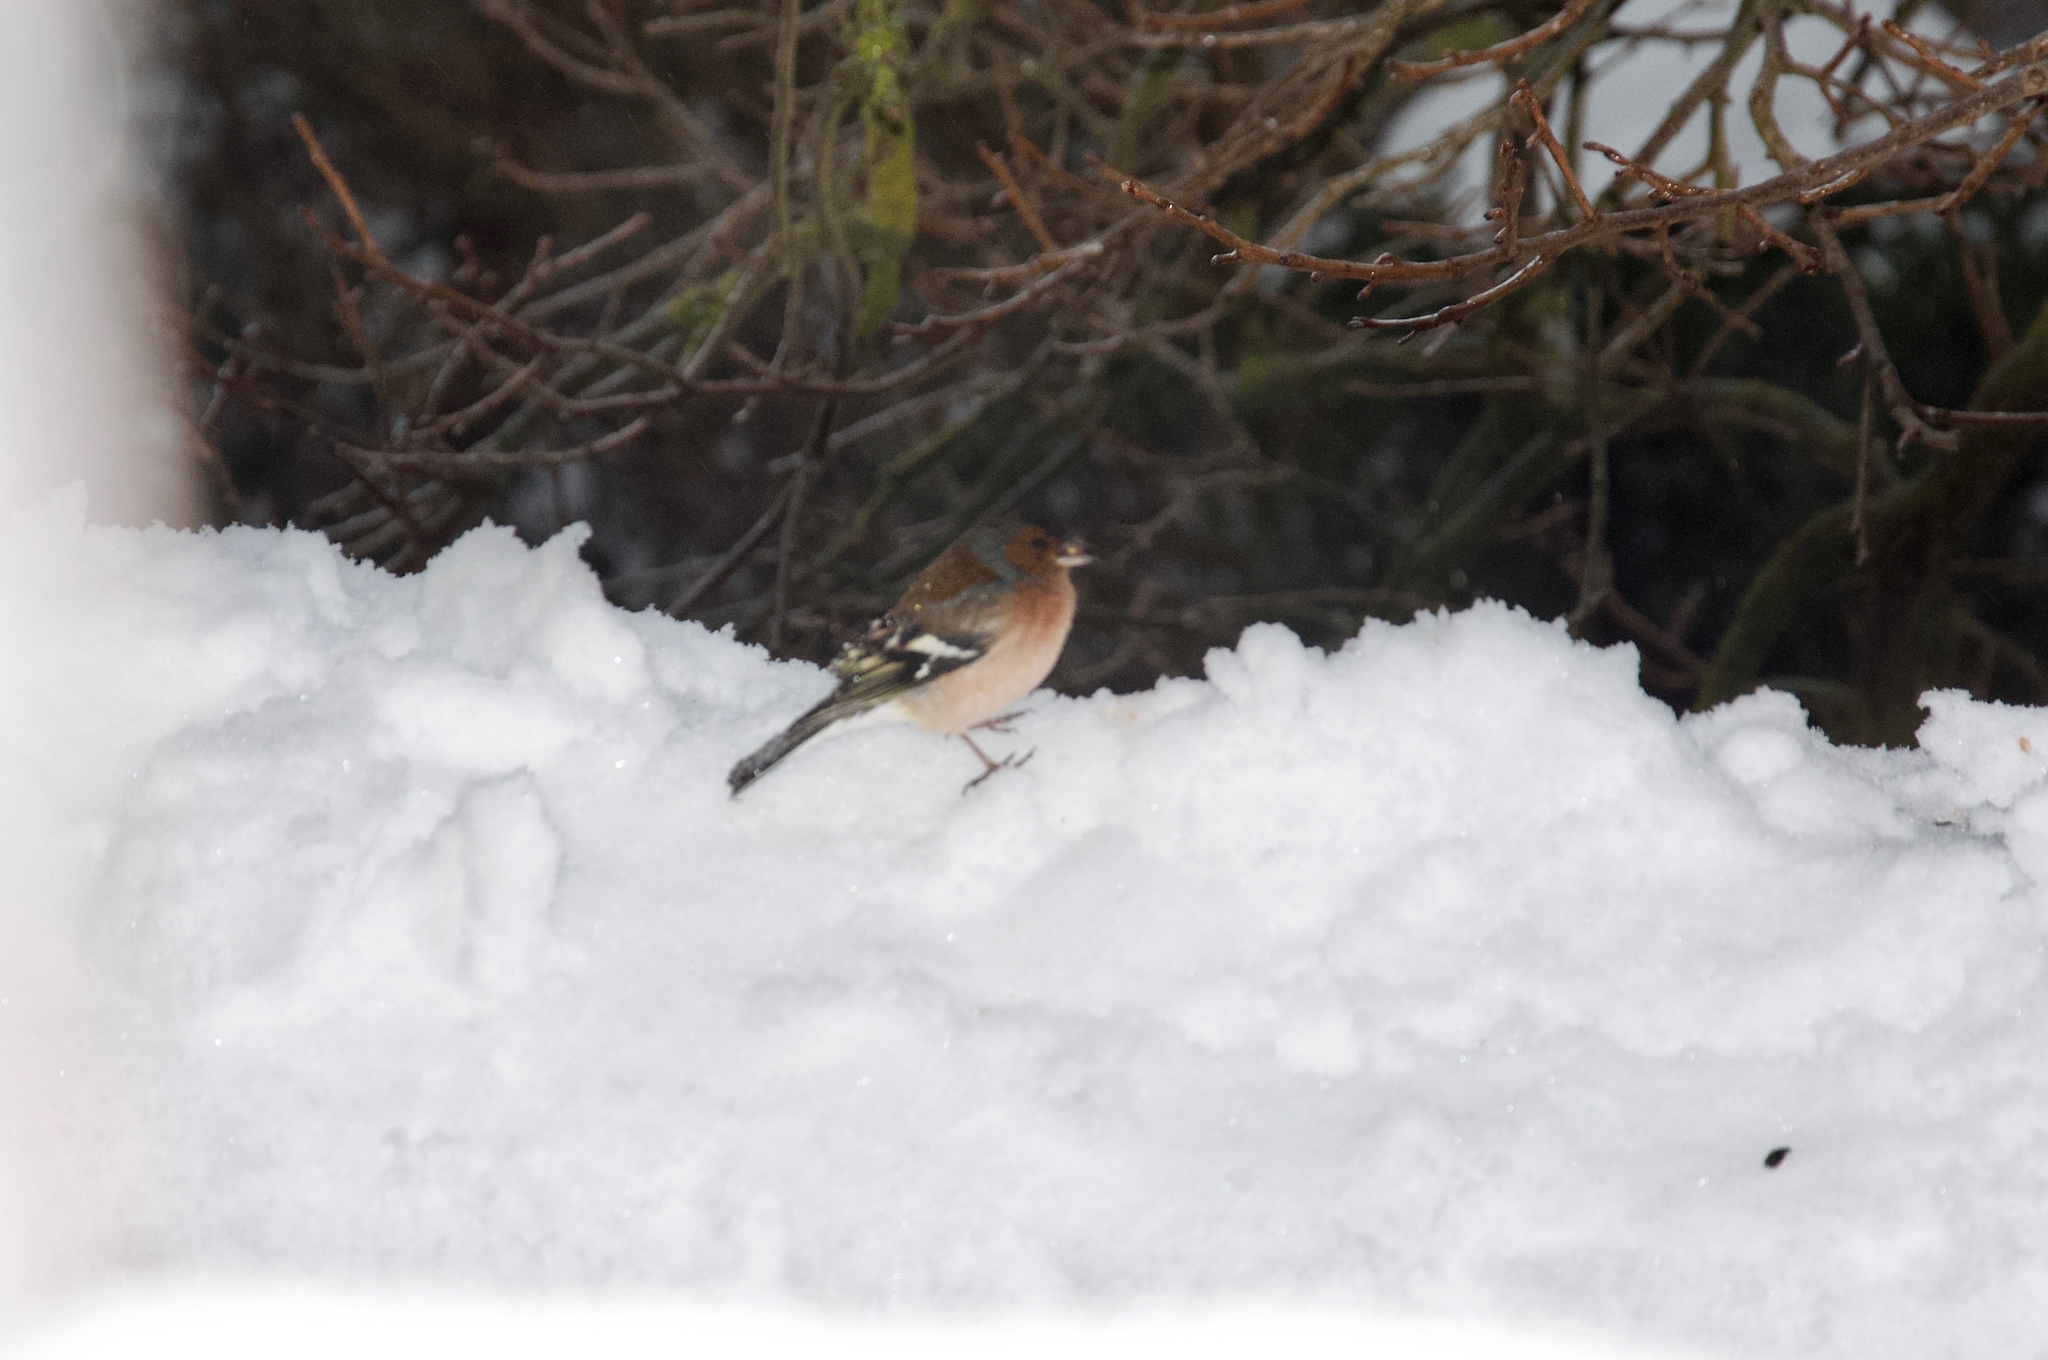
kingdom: Animalia
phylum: Chordata
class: Aves
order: Passeriformes
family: Fringillidae
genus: Fringilla
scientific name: Fringilla coelebs
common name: Common chaffinch
